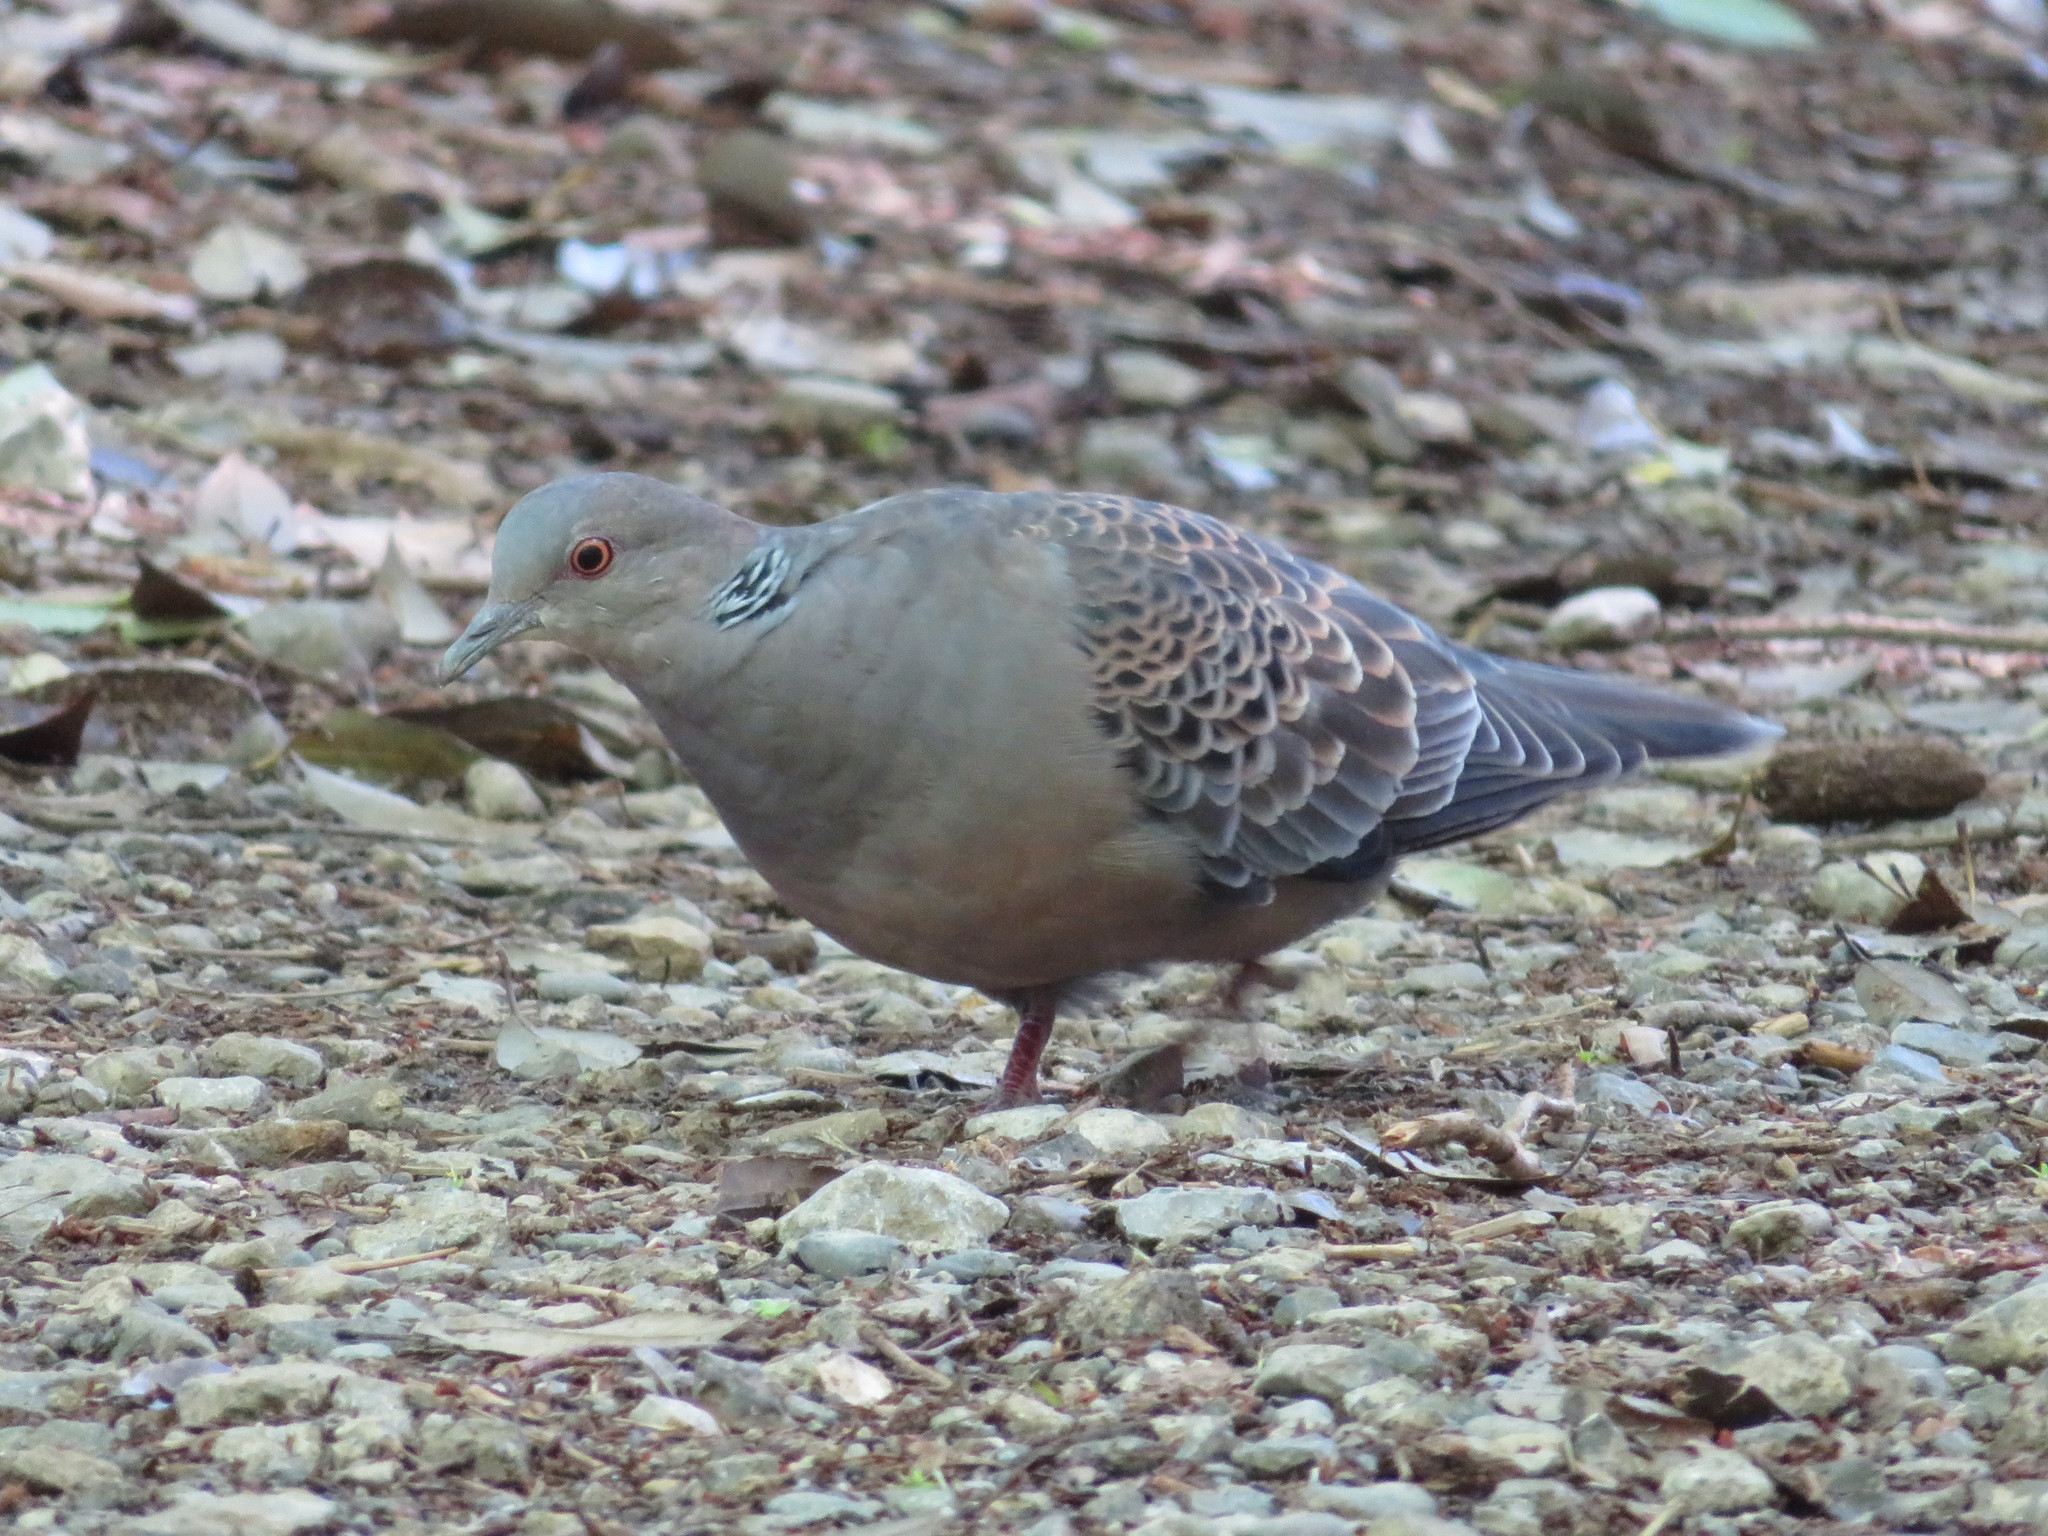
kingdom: Animalia
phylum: Chordata
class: Aves
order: Columbiformes
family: Columbidae
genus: Streptopelia
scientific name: Streptopelia orientalis
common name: Oriental turtle dove
